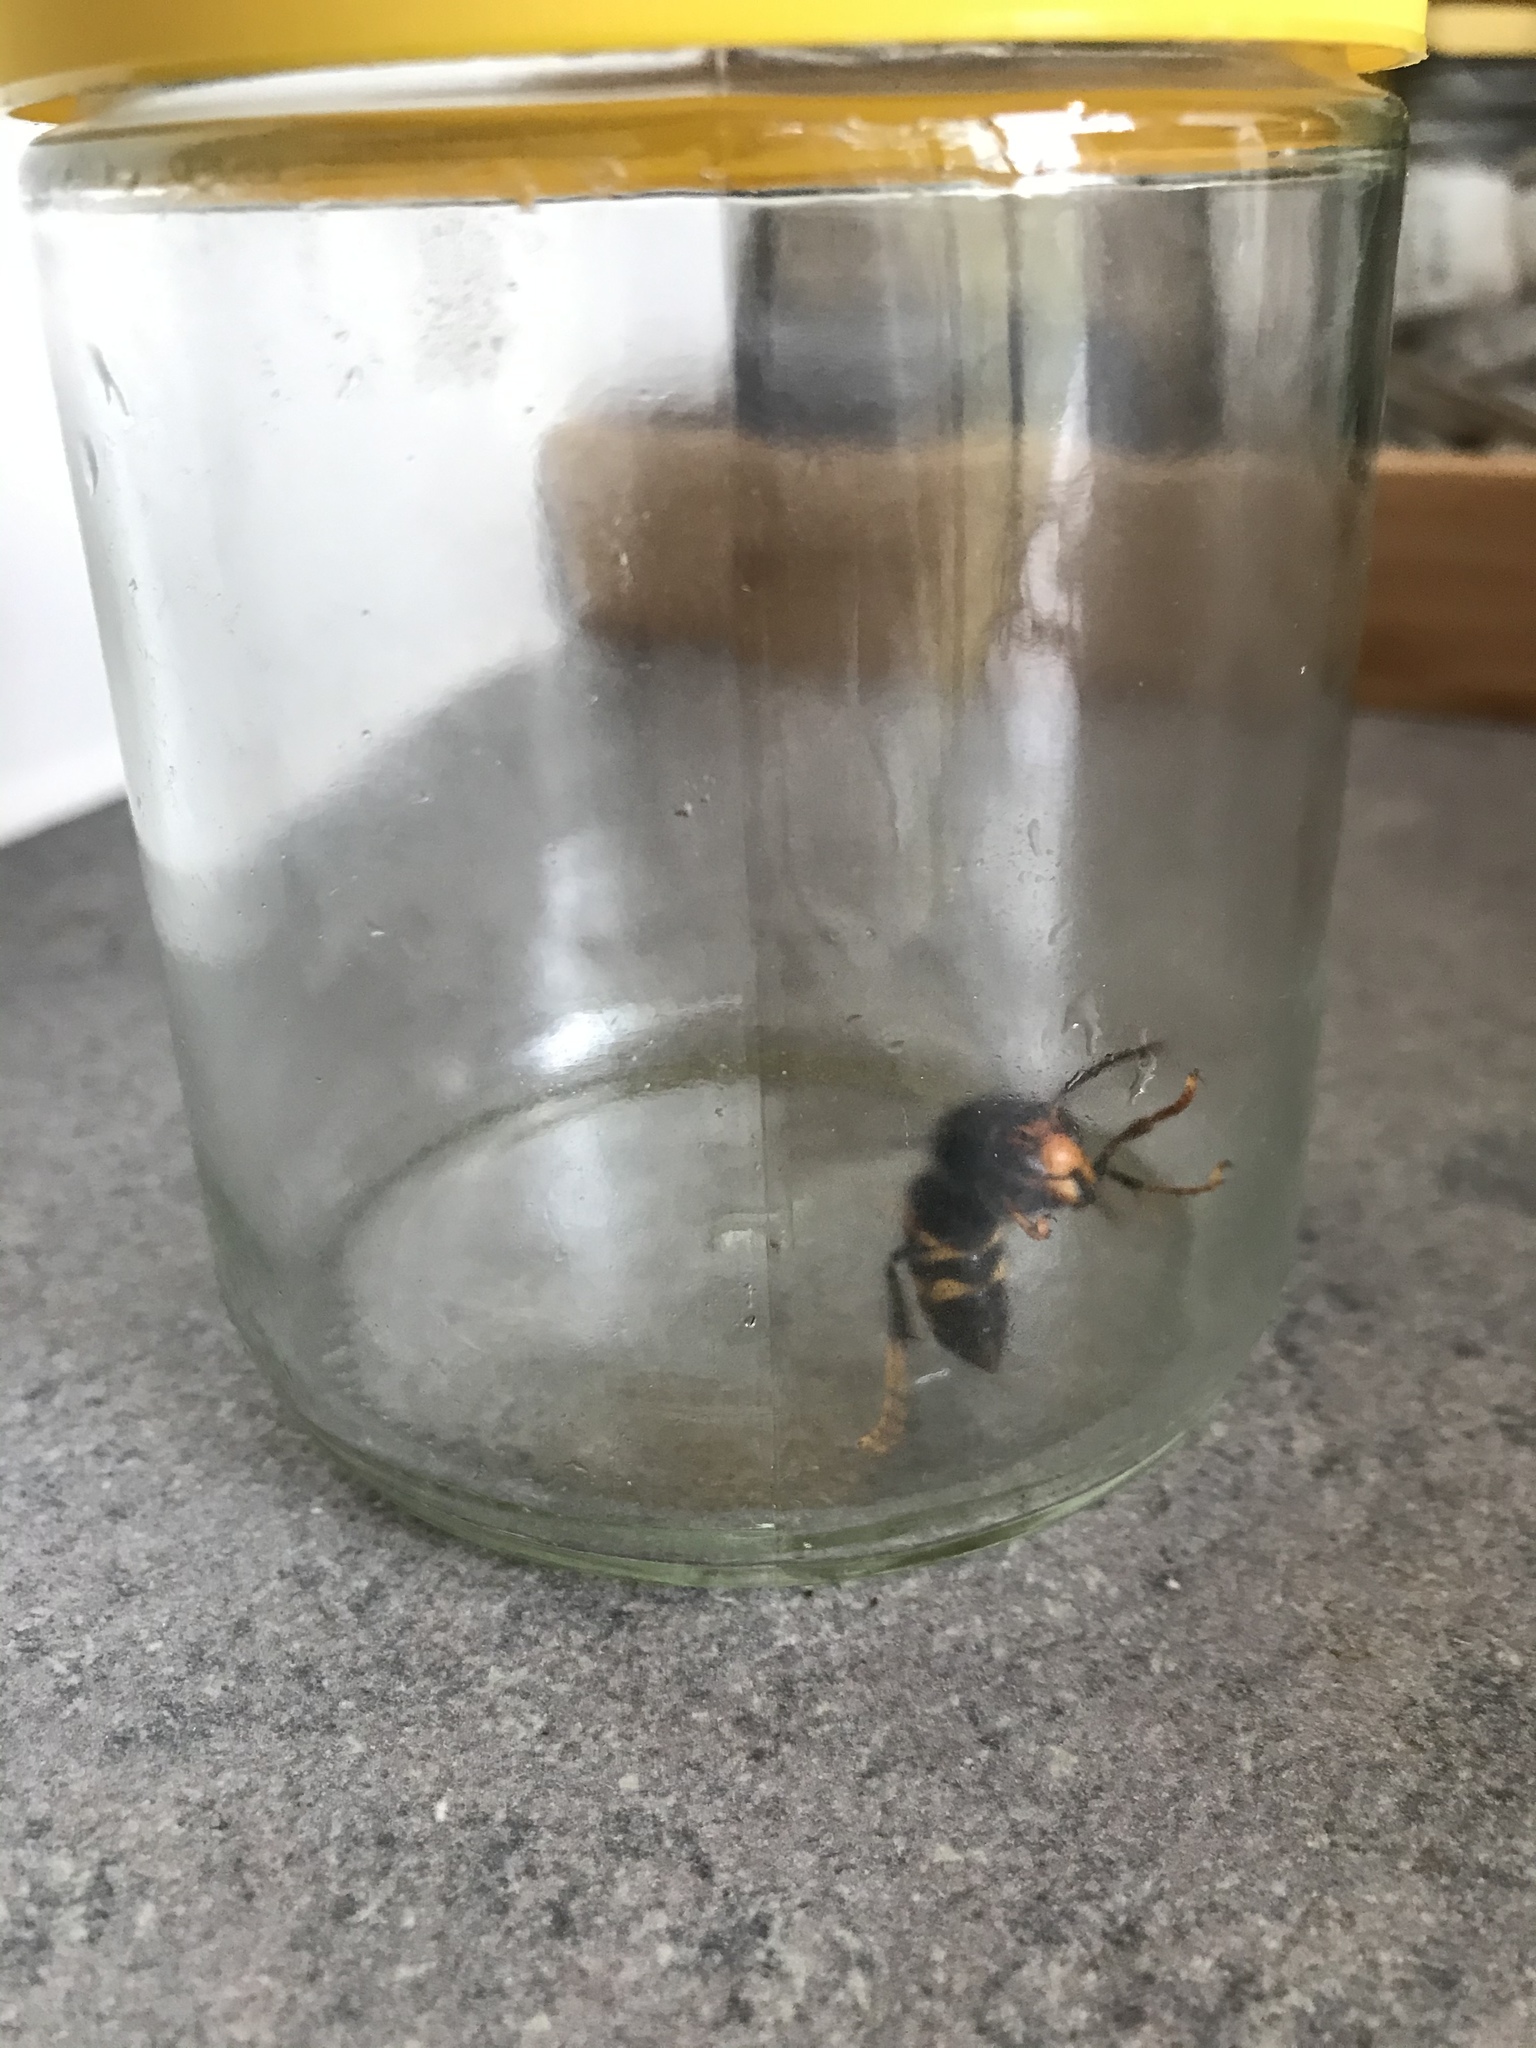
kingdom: Animalia
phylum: Arthropoda
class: Insecta
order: Hymenoptera
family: Vespidae
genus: Vespa
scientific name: Vespa velutina
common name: Asian hornet
